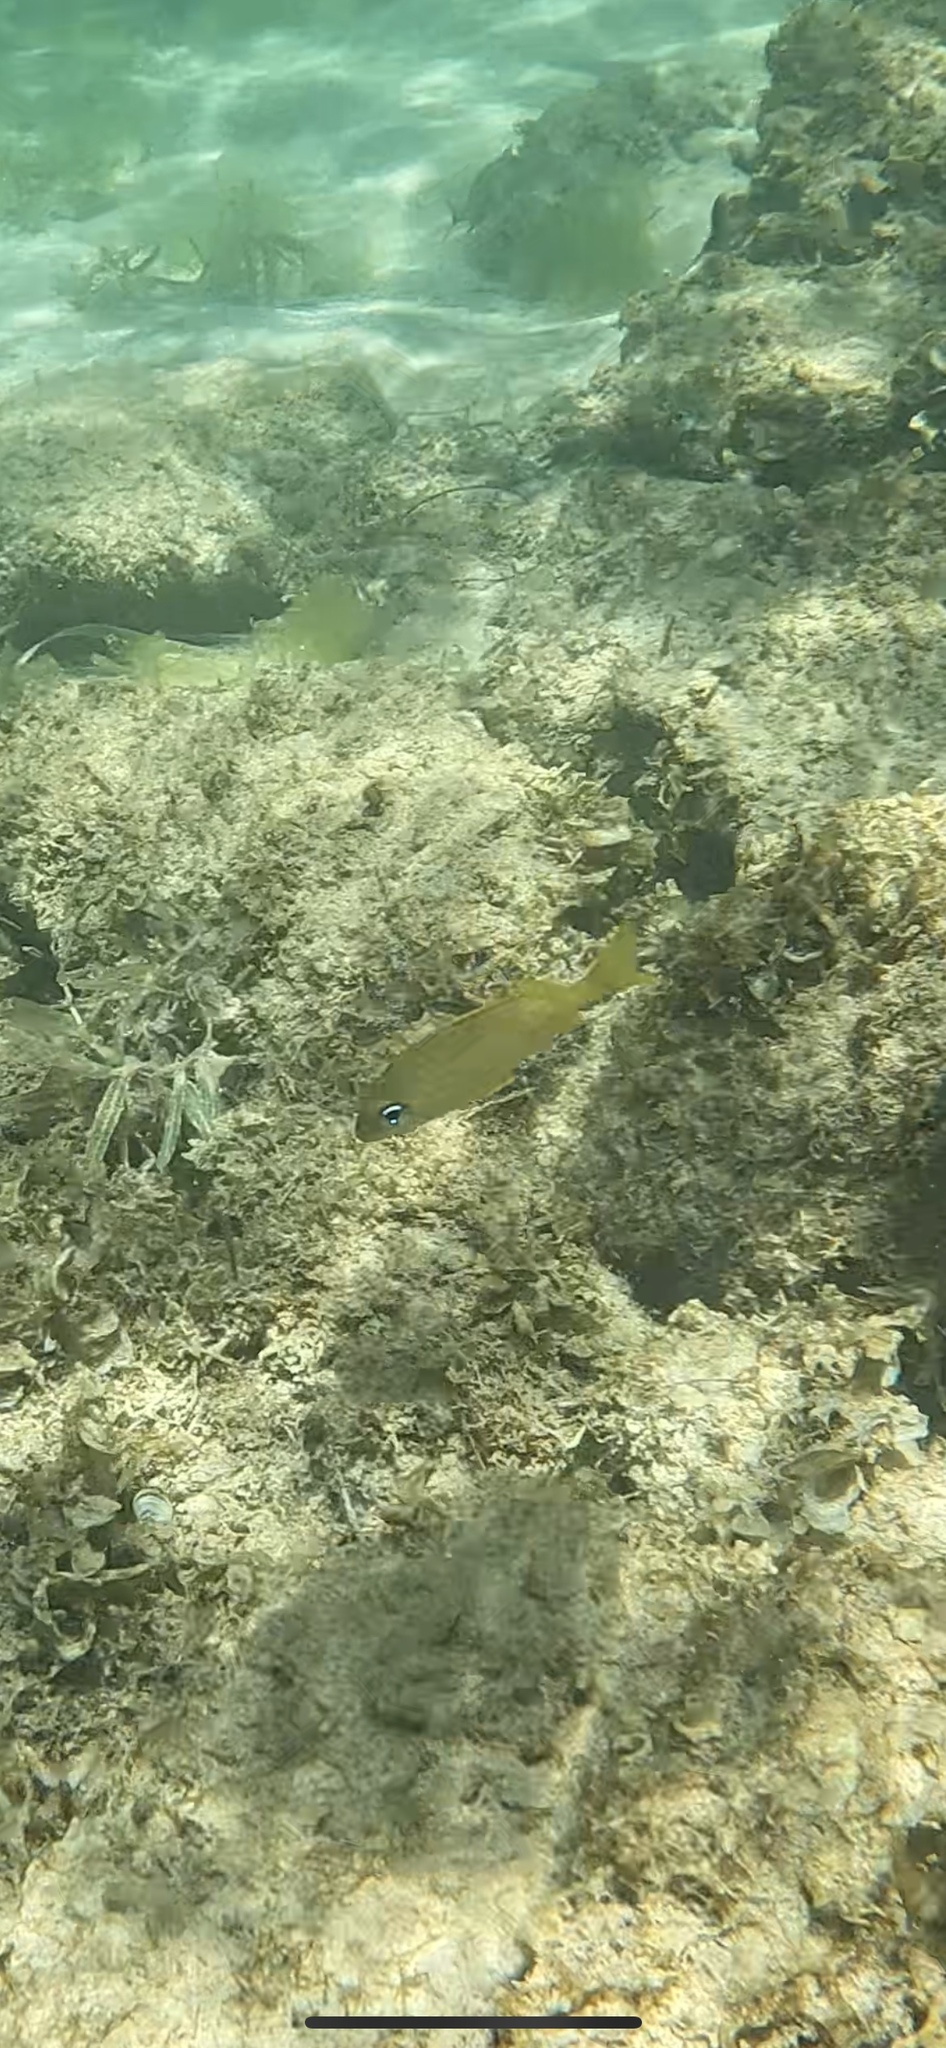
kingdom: Animalia
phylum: Chordata
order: Perciformes
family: Haemulidae
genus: Haemulon
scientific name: Haemulon flavolineatum
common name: French grunt
